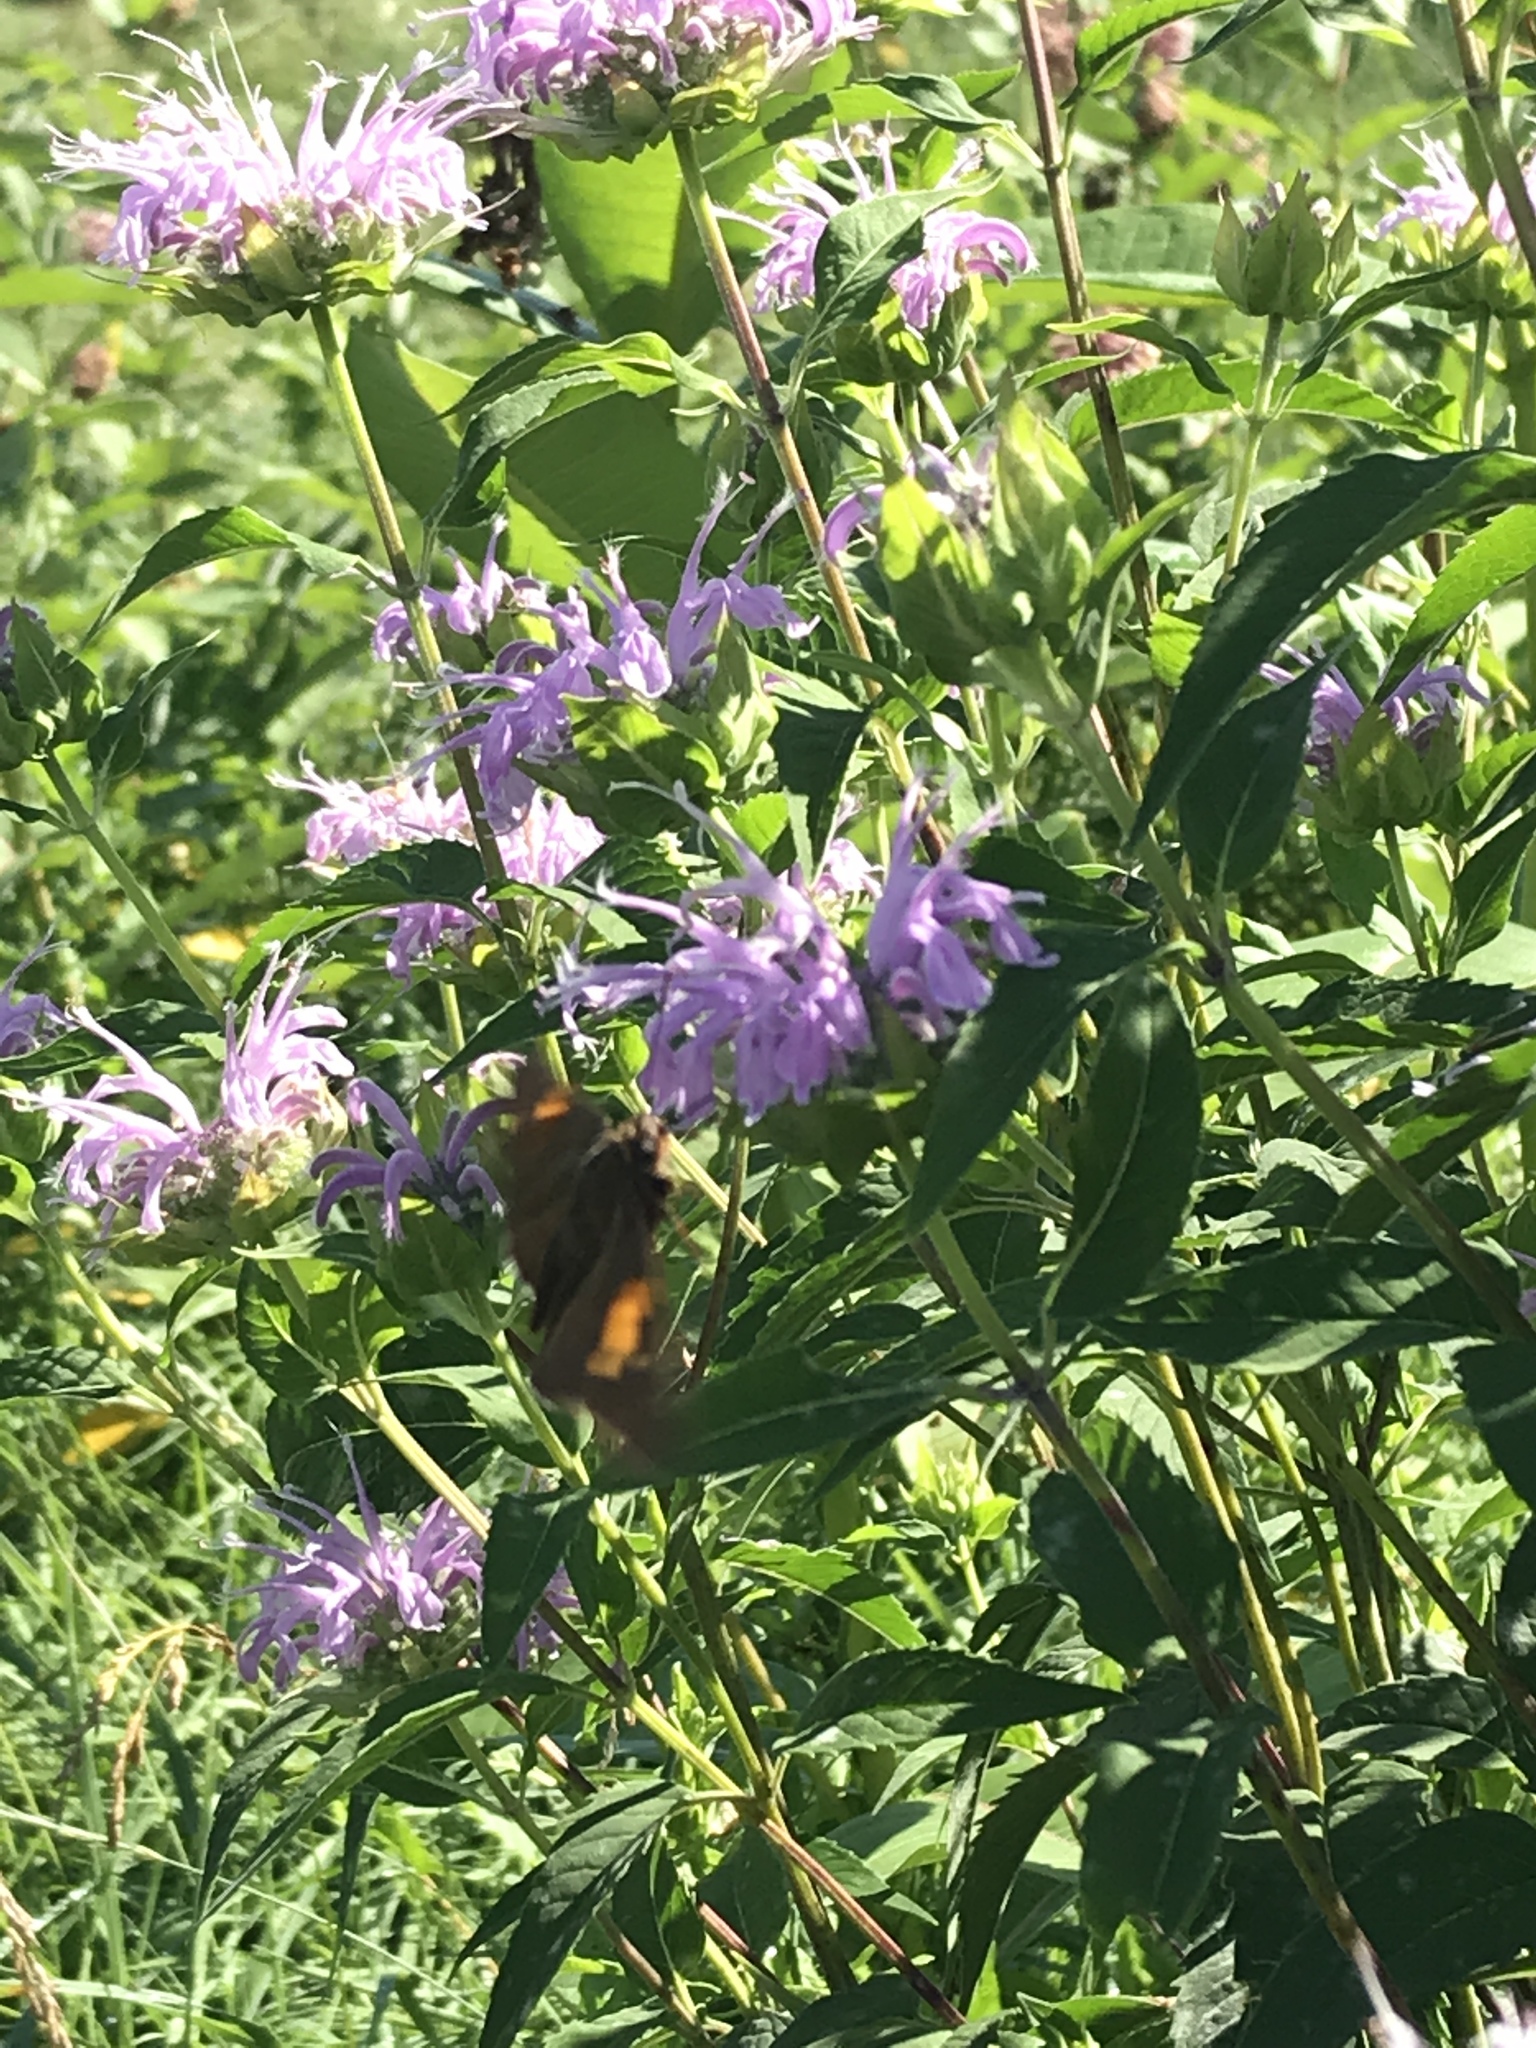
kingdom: Animalia
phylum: Arthropoda
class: Insecta
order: Lepidoptera
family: Hesperiidae
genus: Epargyreus
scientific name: Epargyreus clarus
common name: Silver-spotted skipper
